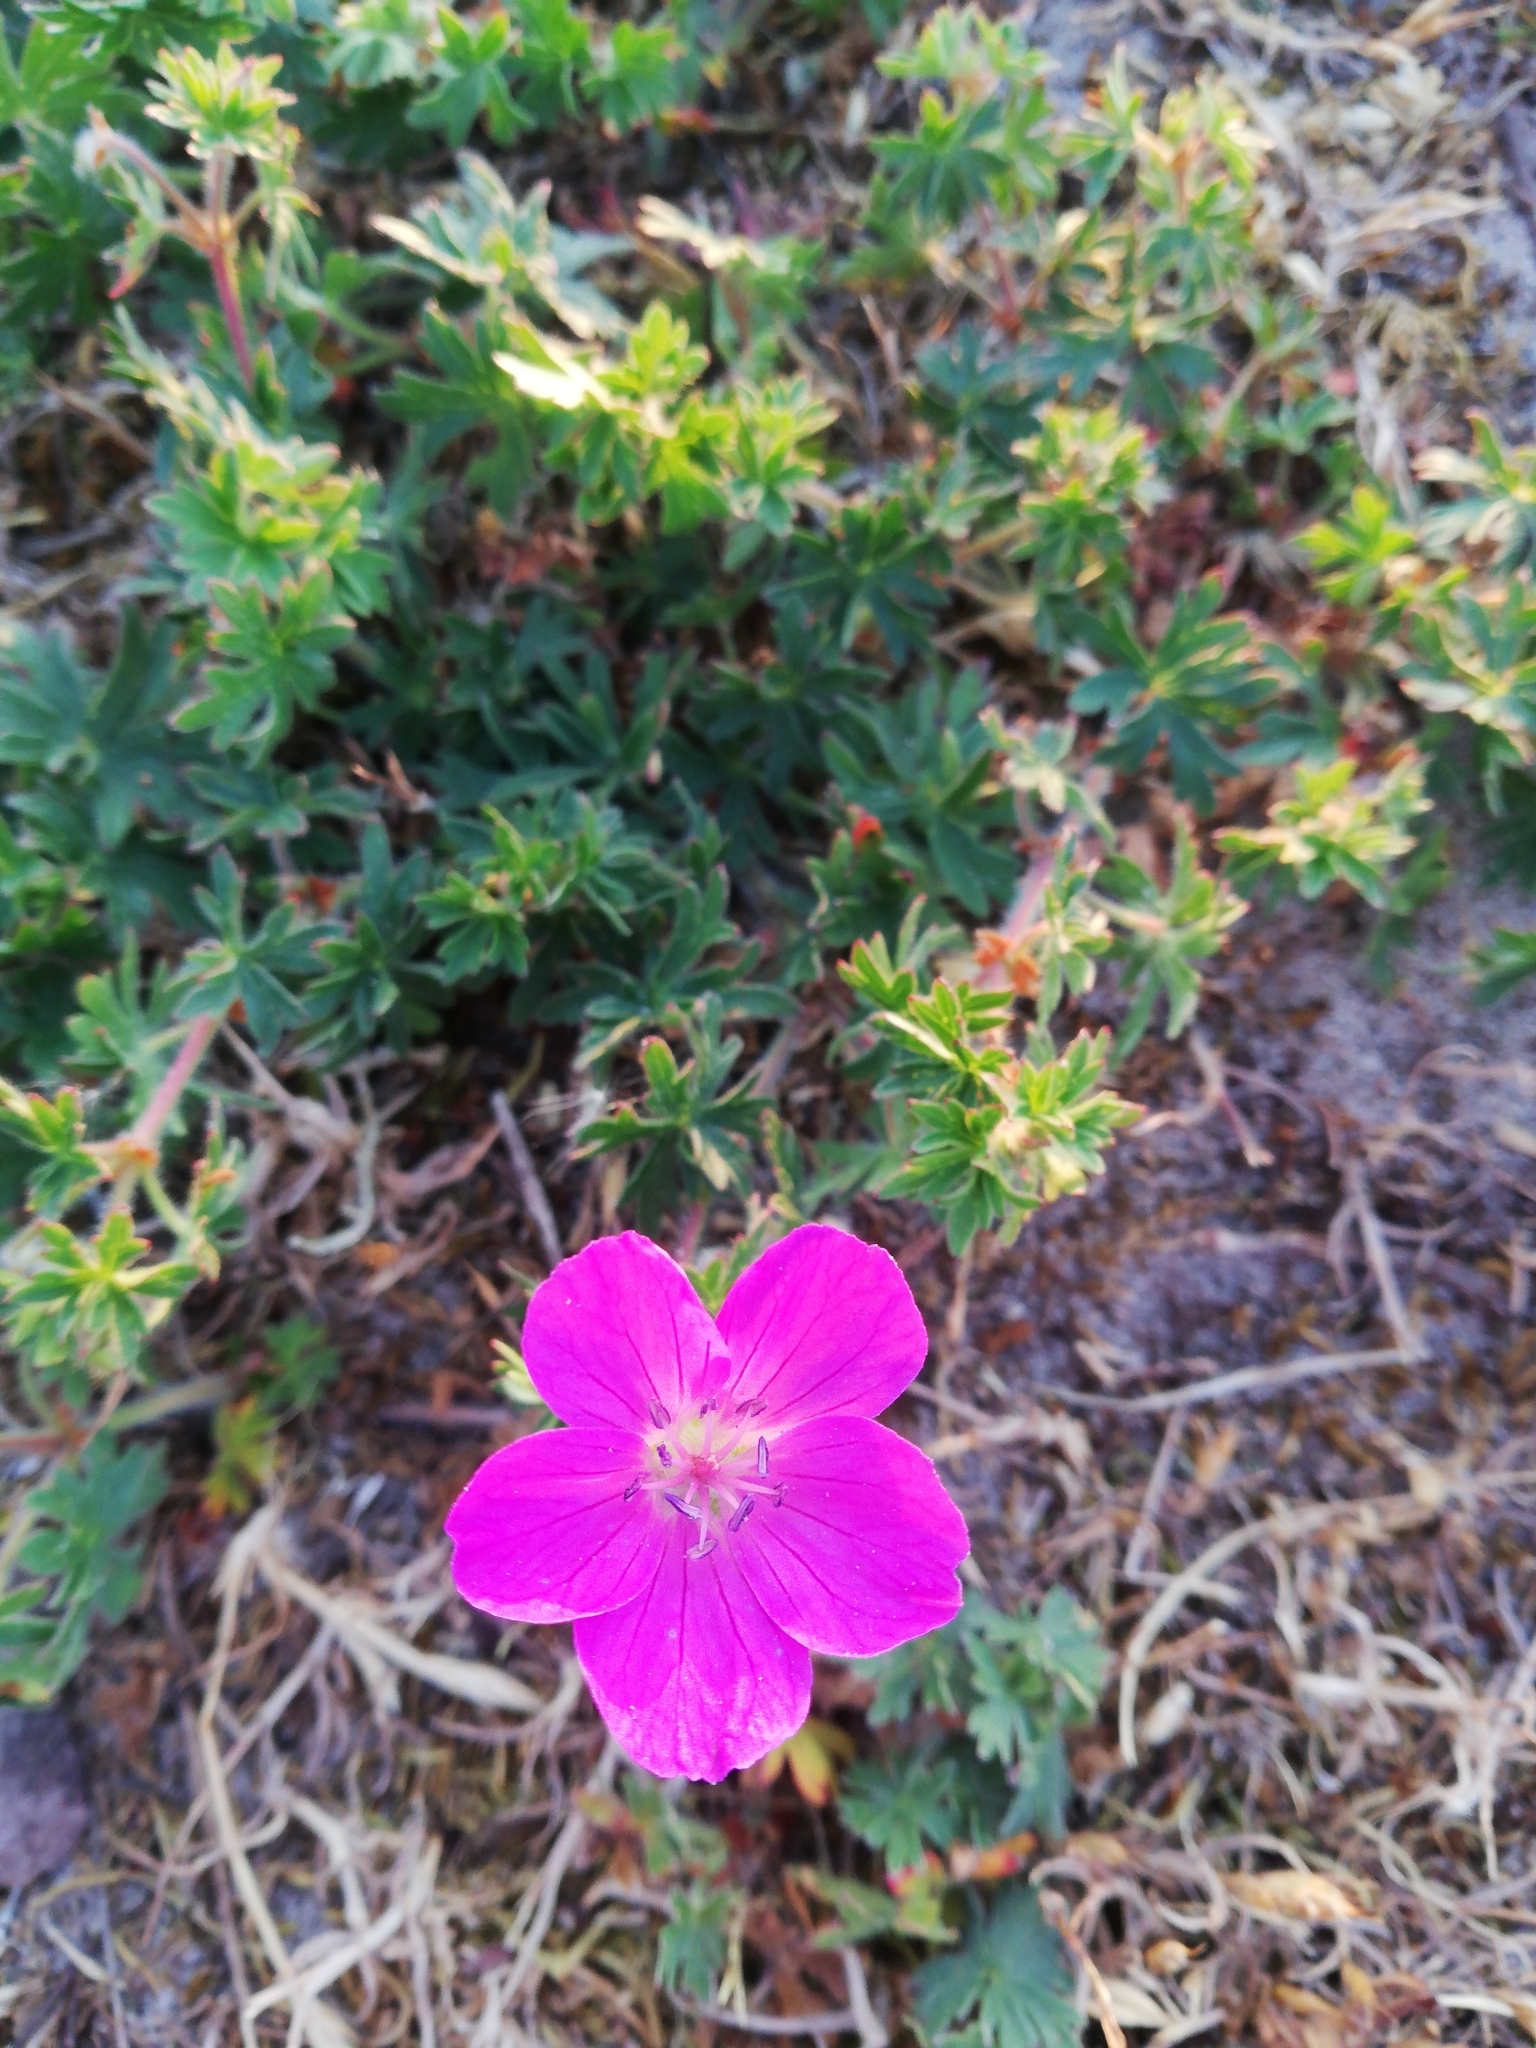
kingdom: Plantae
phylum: Tracheophyta
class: Magnoliopsida
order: Geraniales
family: Geraniaceae
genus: Geranium
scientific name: Geranium sanguineum
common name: Bloody crane's-bill
